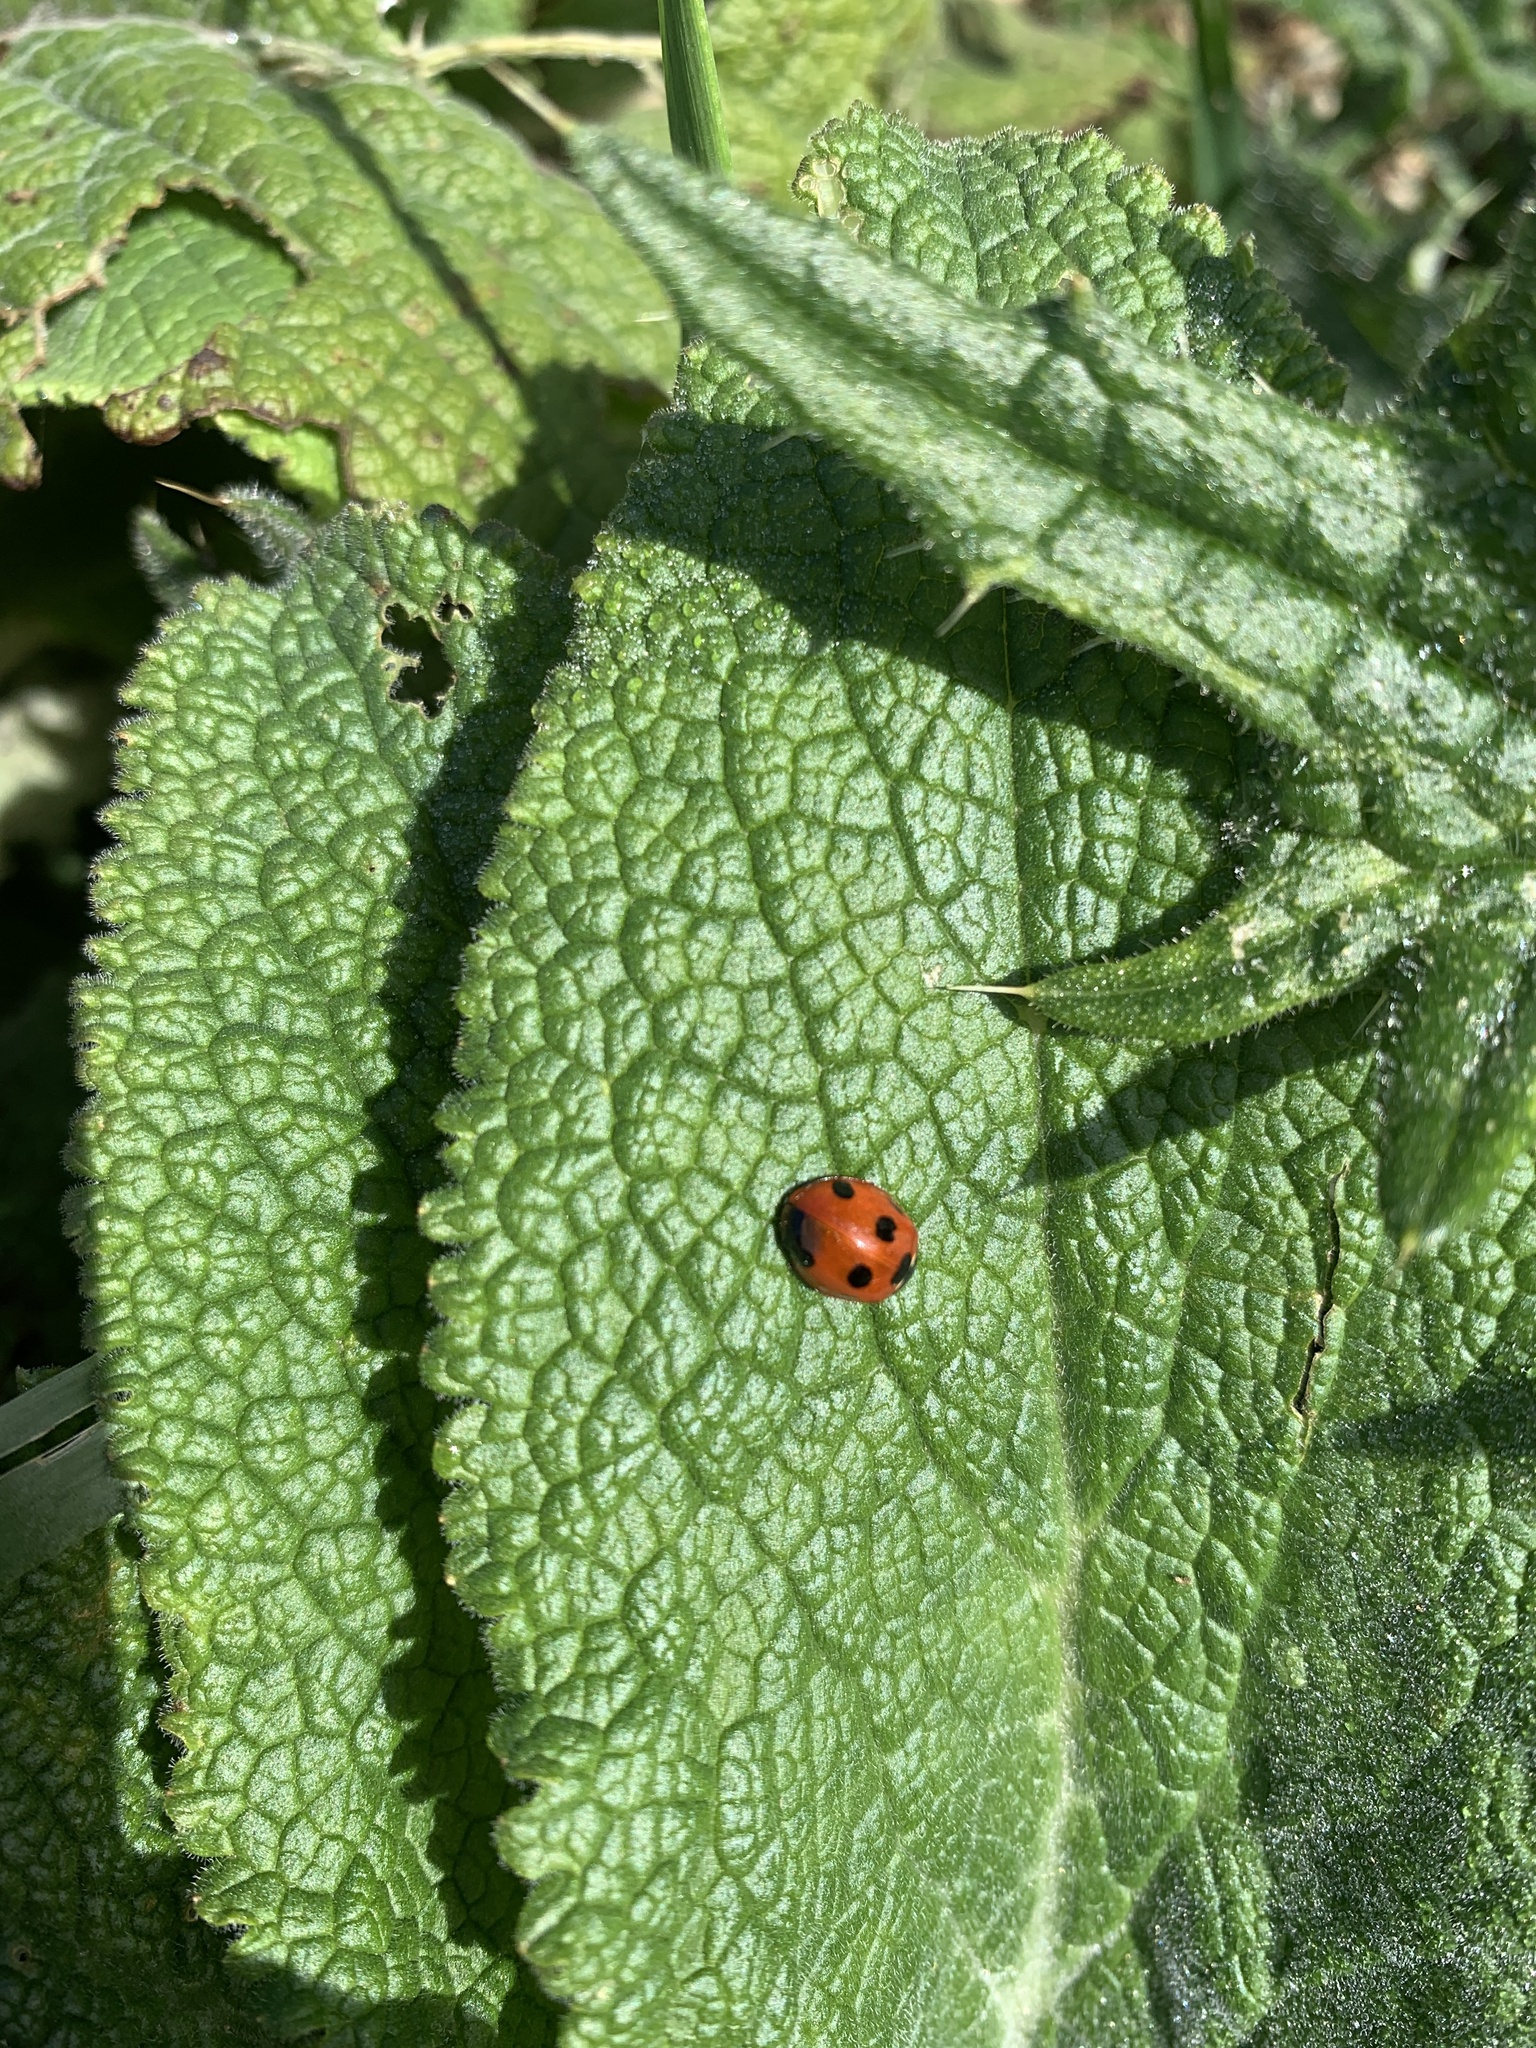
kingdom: Animalia
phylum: Arthropoda
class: Insecta
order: Coleoptera
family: Coccinellidae
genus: Coccinella
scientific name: Coccinella septempunctata
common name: Sevenspotted lady beetle
